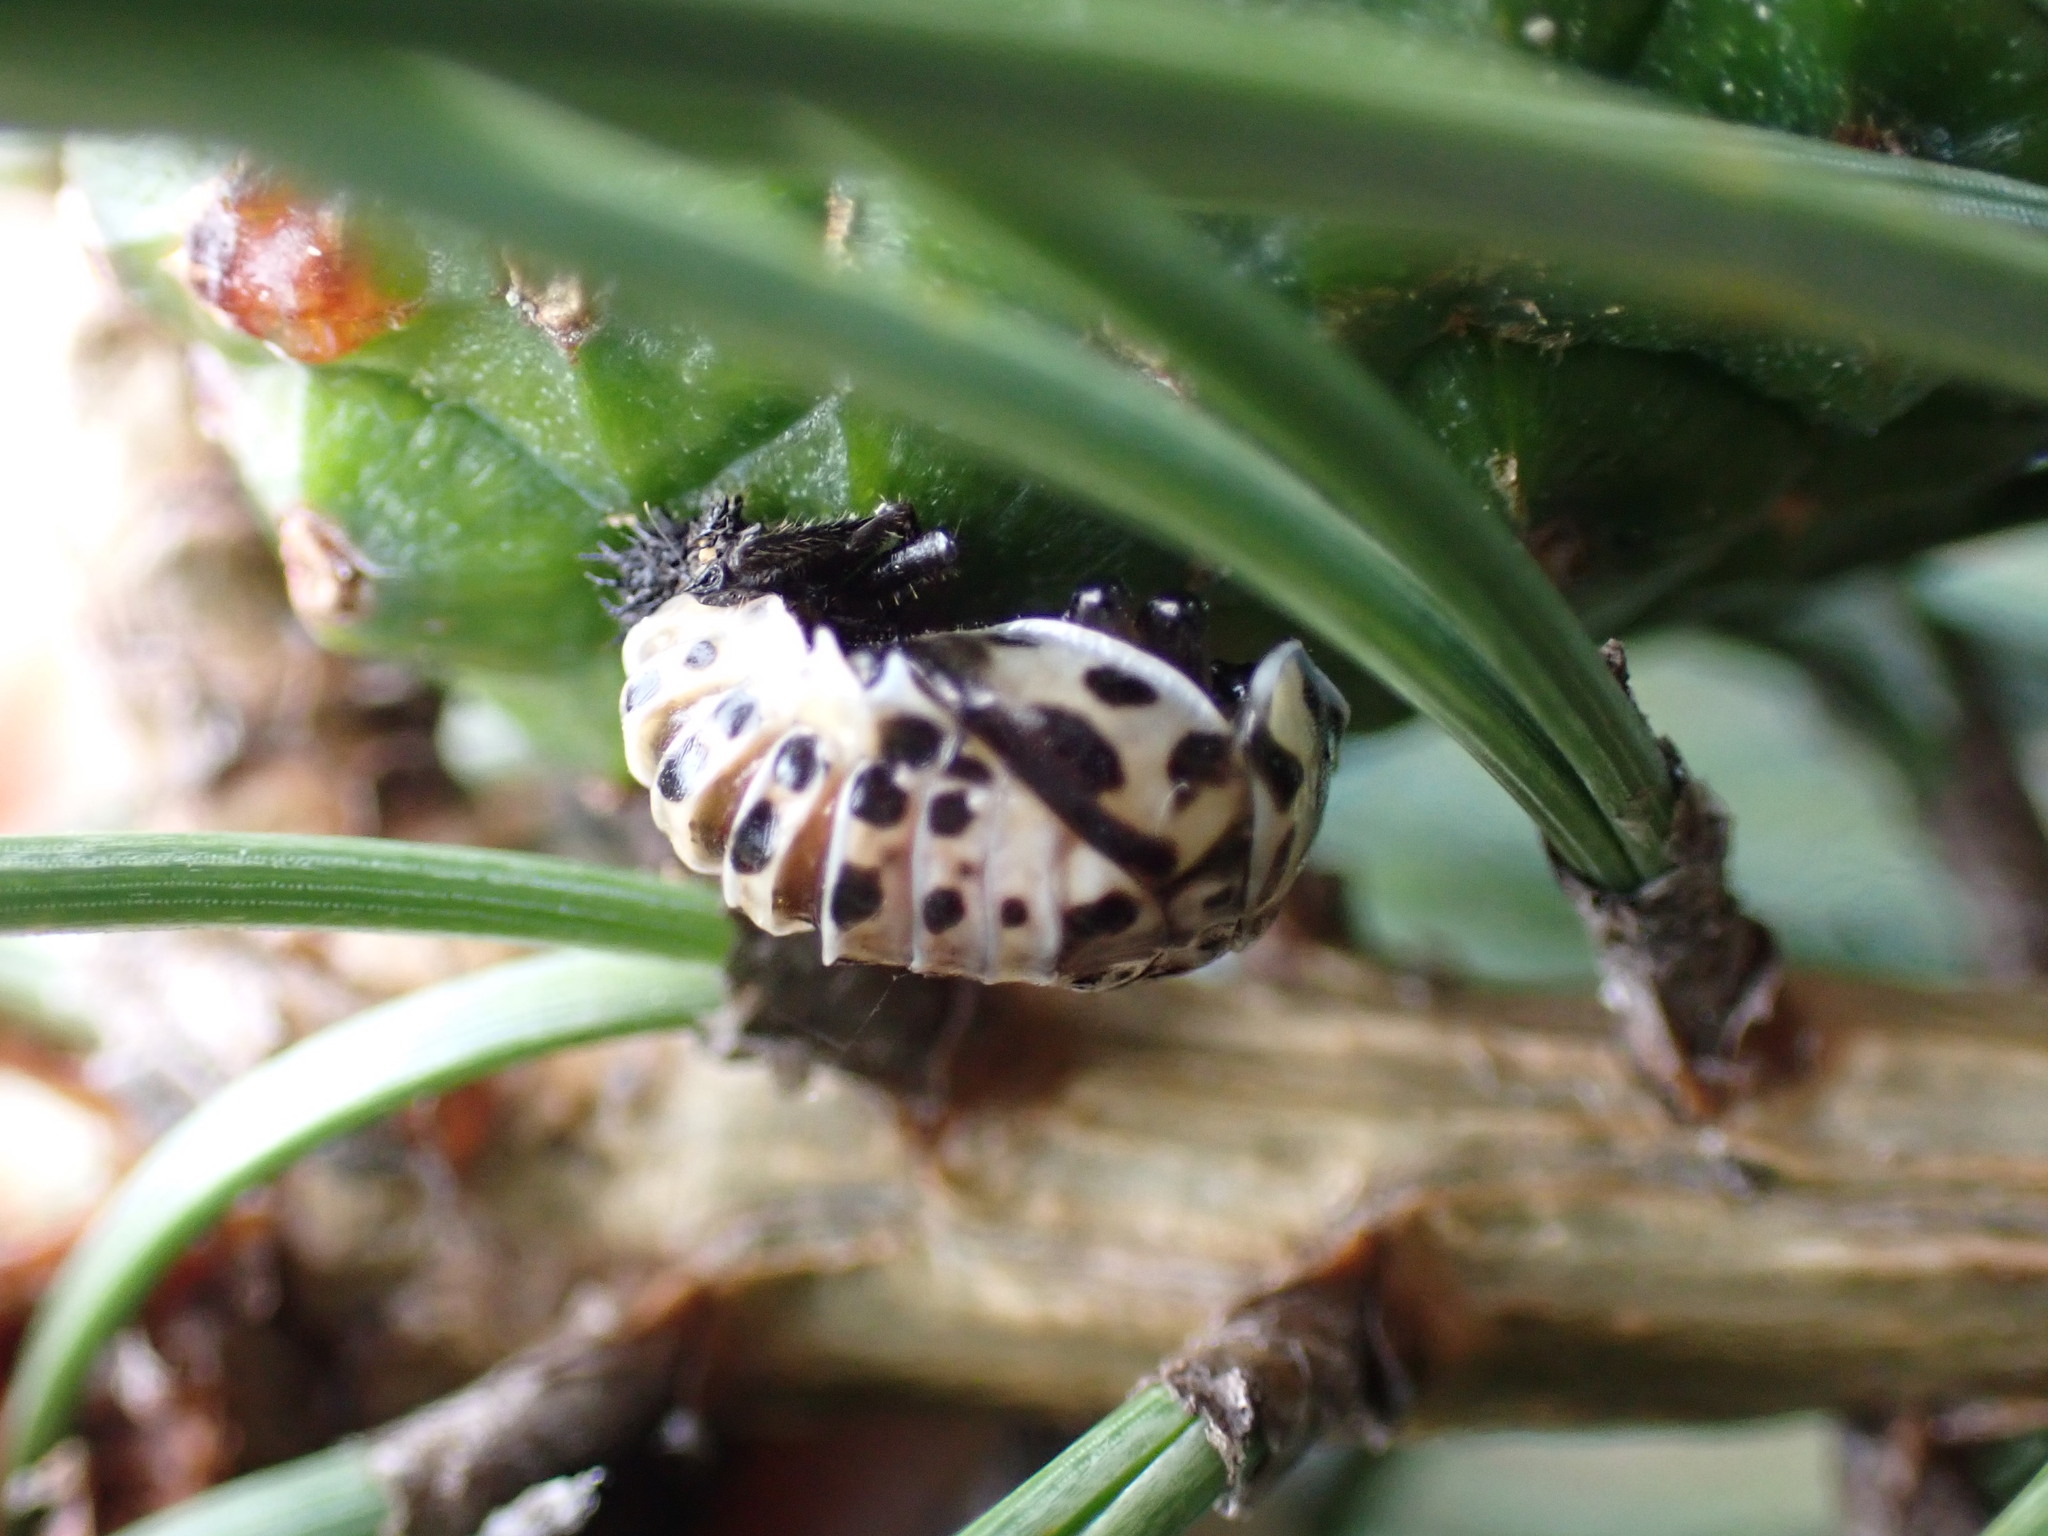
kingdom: Animalia
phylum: Arthropoda
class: Insecta
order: Coleoptera
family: Coccinellidae
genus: Anatis
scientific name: Anatis ocellata
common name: Eyed ladybird
